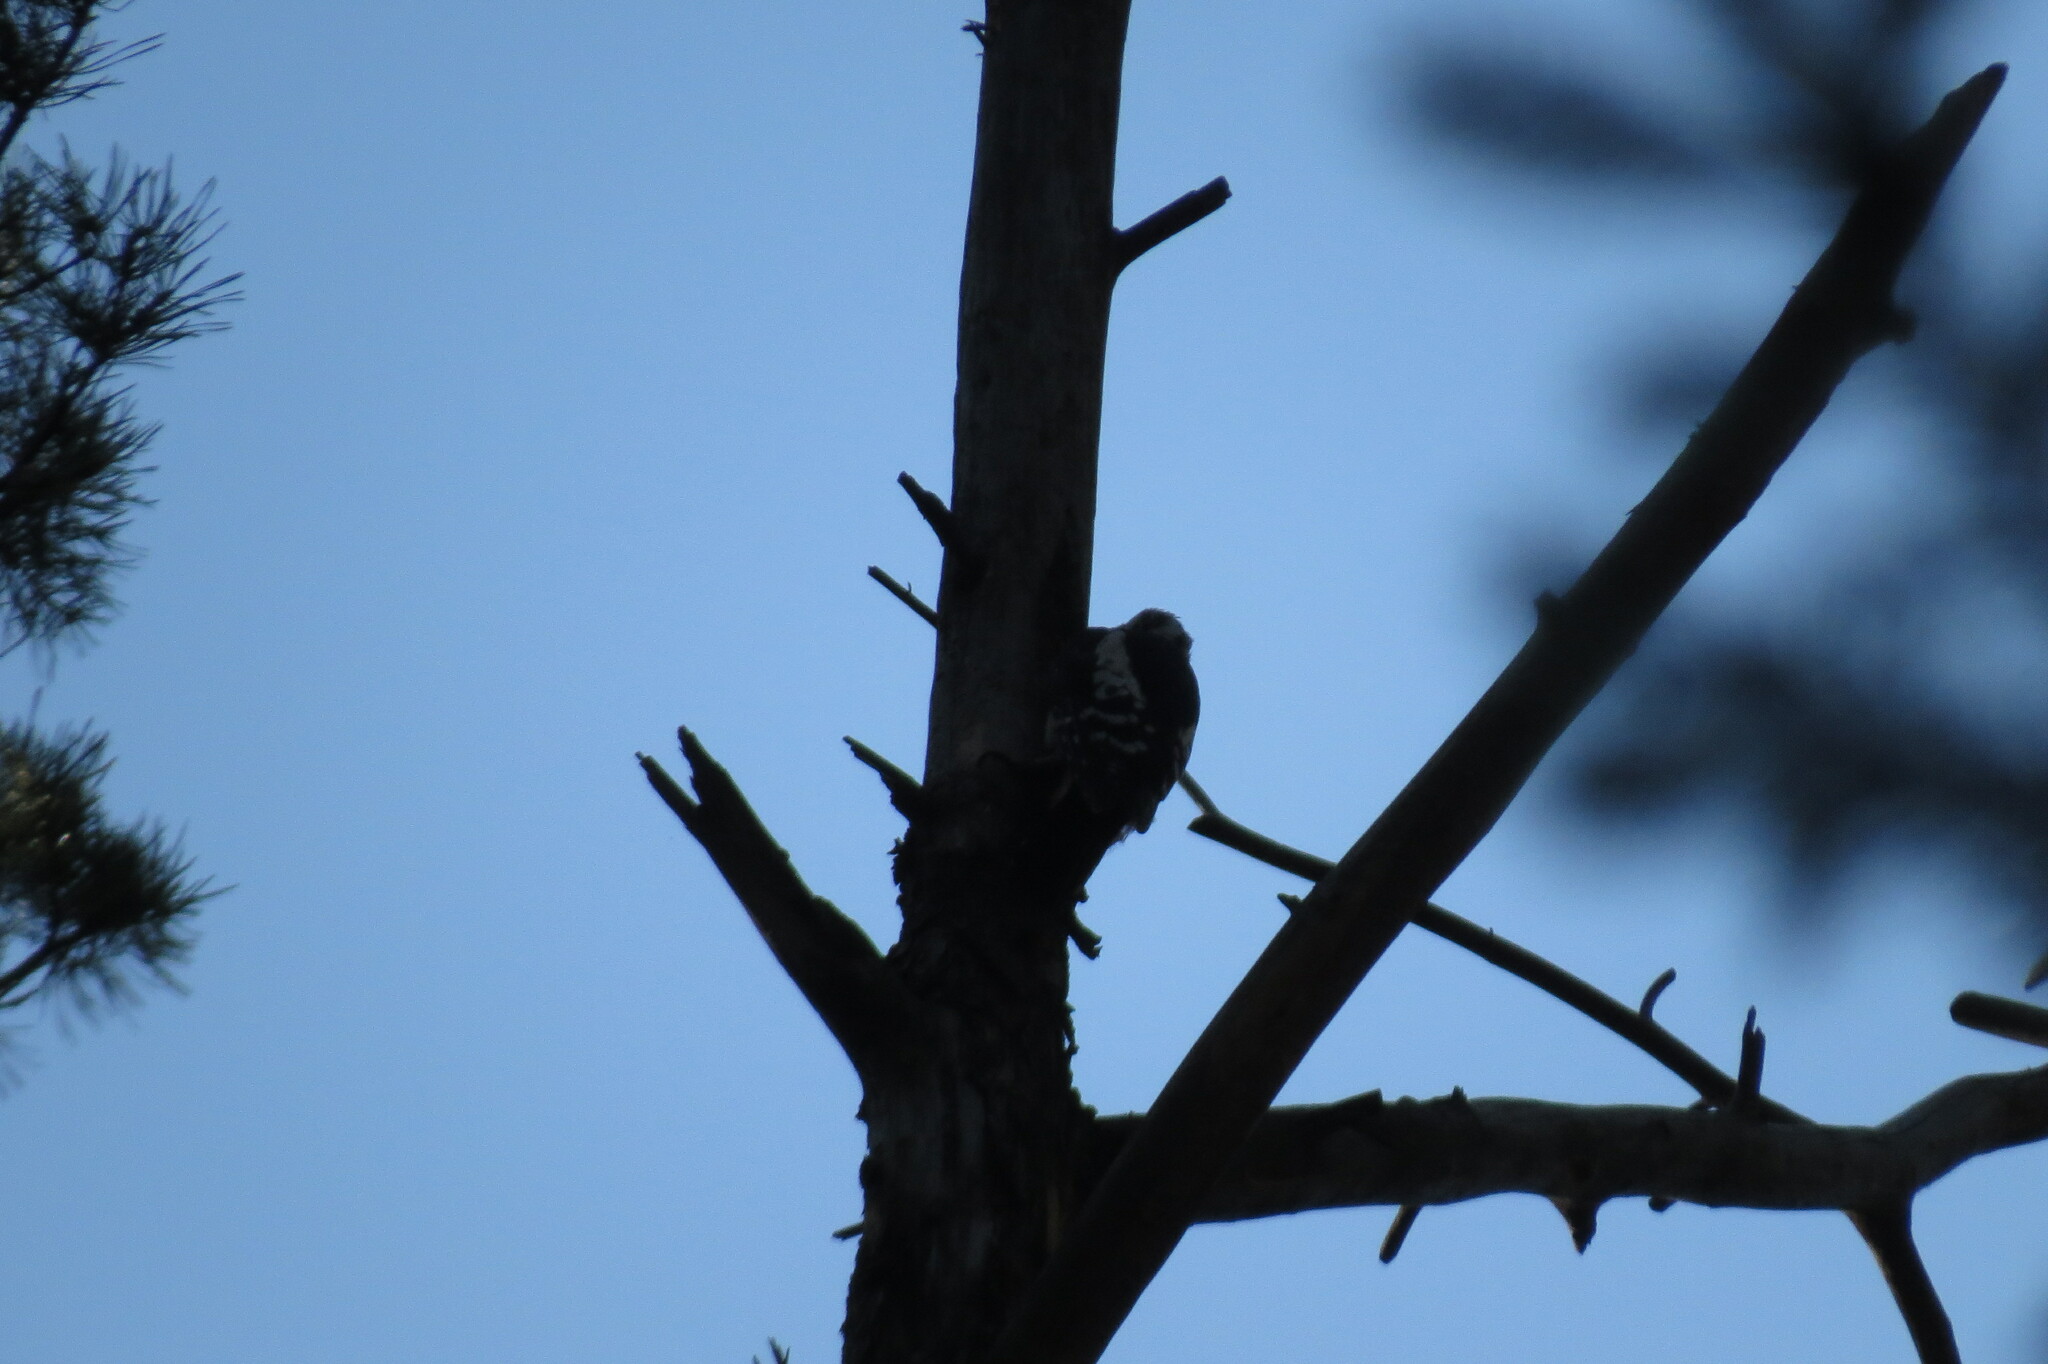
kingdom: Animalia
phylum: Chordata
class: Aves
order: Piciformes
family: Picidae
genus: Dendrocopos
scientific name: Dendrocopos major
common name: Great spotted woodpecker
